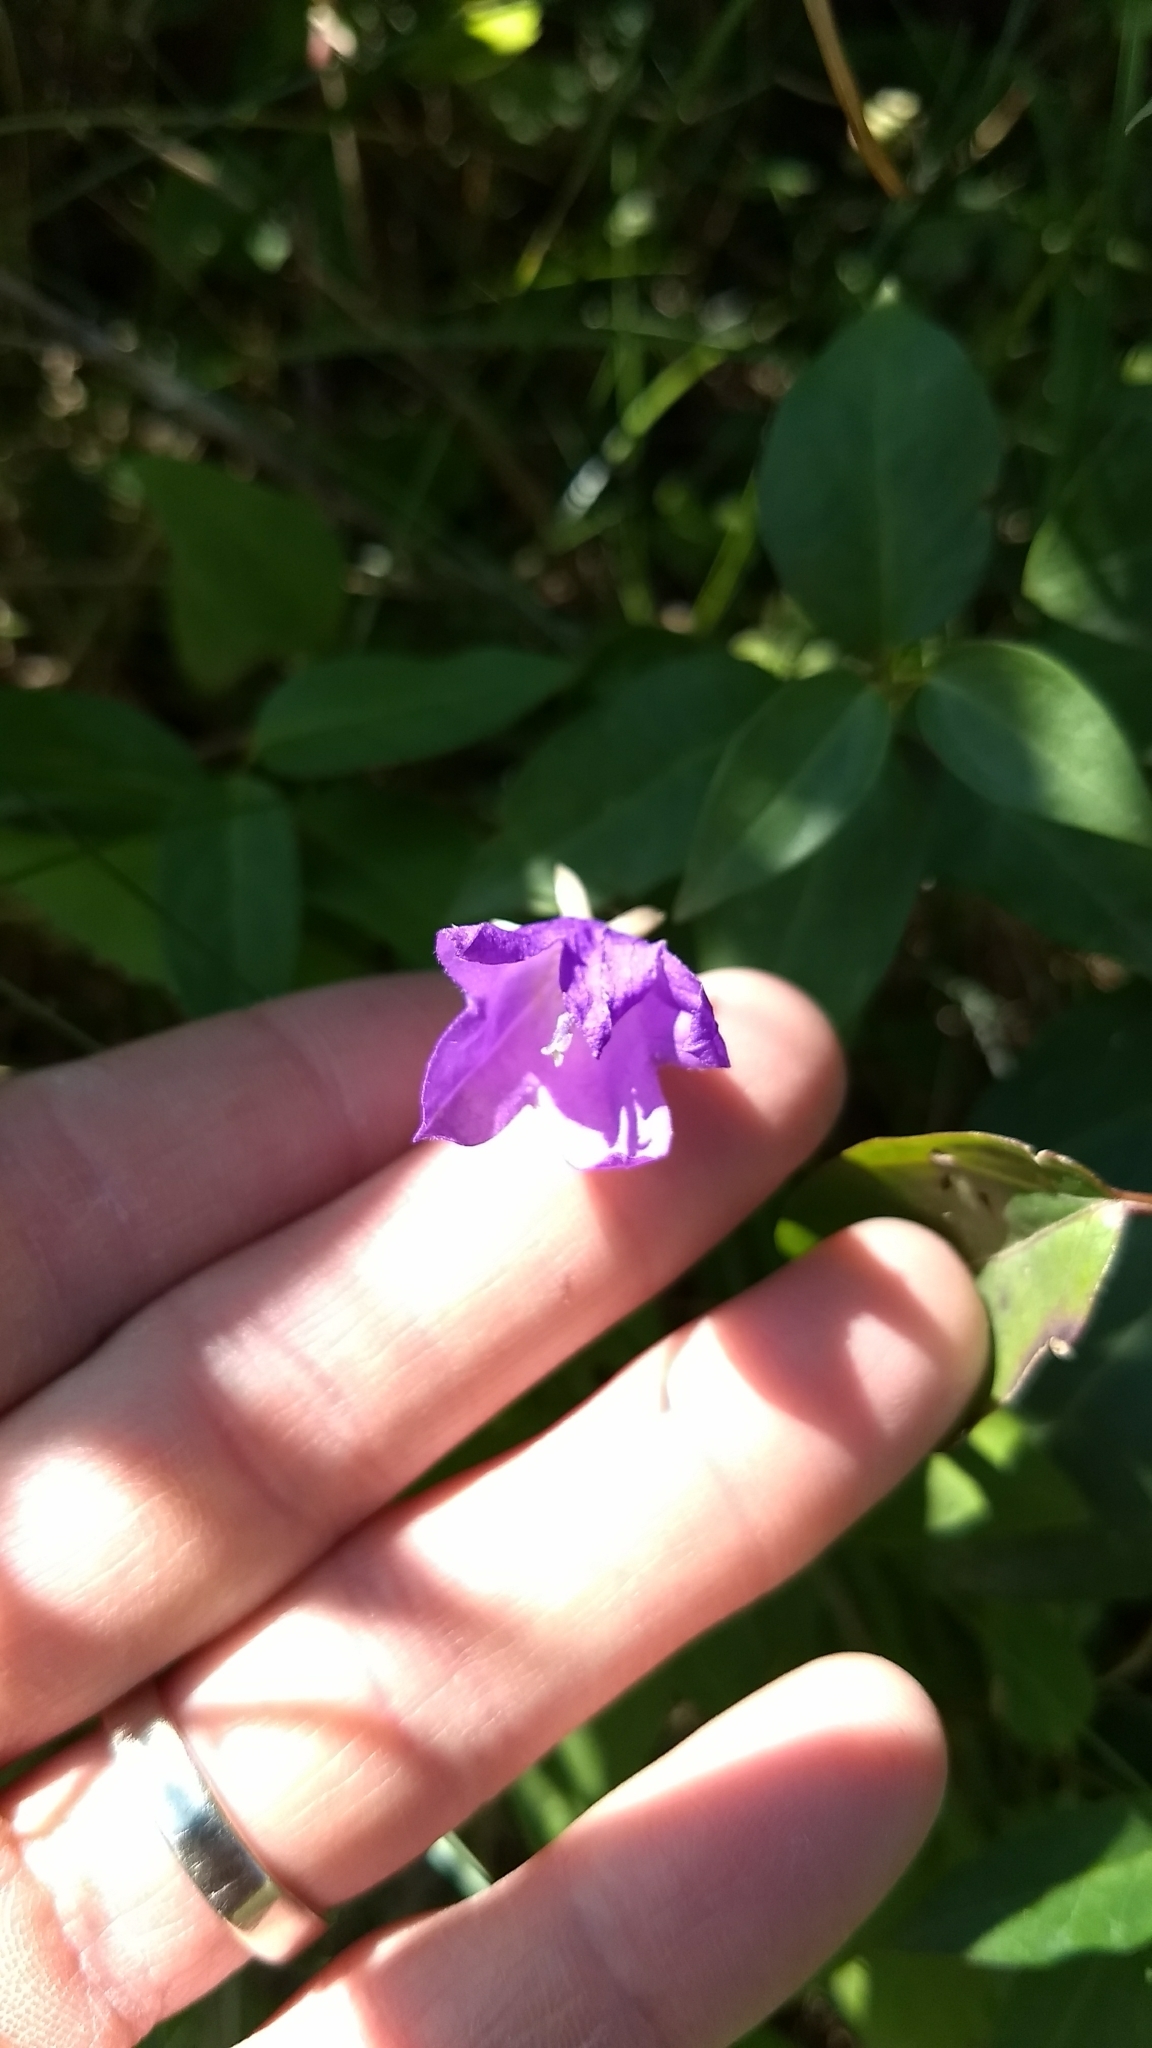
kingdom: Plantae
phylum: Tracheophyta
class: Magnoliopsida
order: Asterales
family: Campanulaceae
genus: Campanula
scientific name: Campanula rapunculoides
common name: Creeping bellflower
